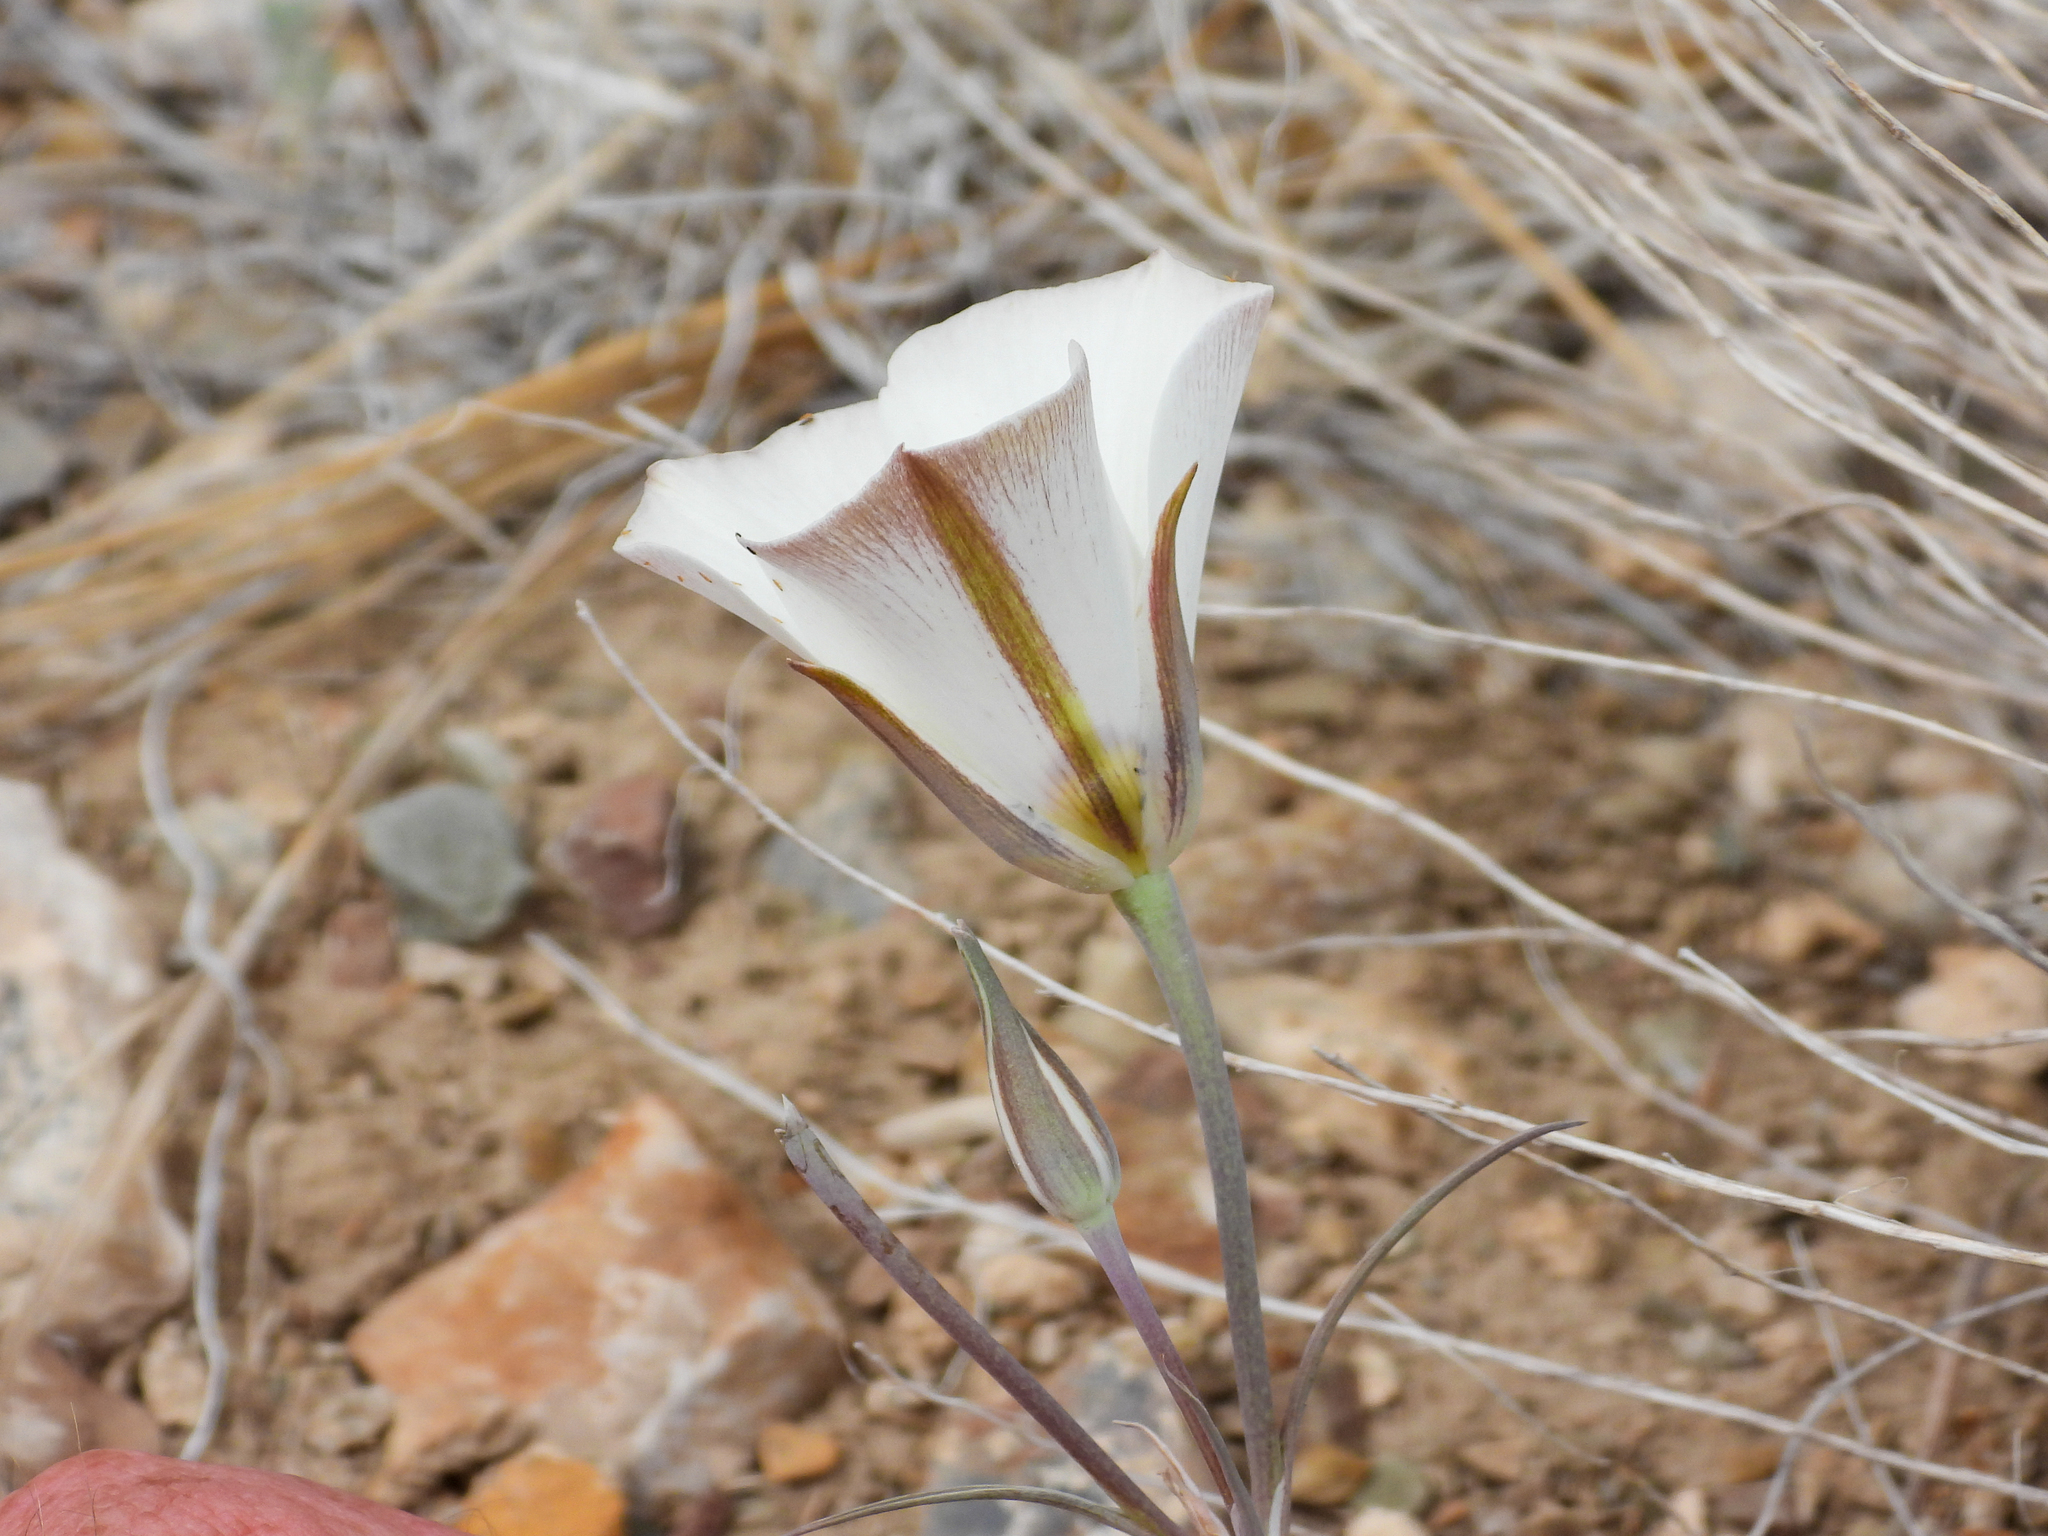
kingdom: Plantae
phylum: Tracheophyta
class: Liliopsida
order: Liliales
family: Liliaceae
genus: Calochortus
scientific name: Calochortus bruneaunis
